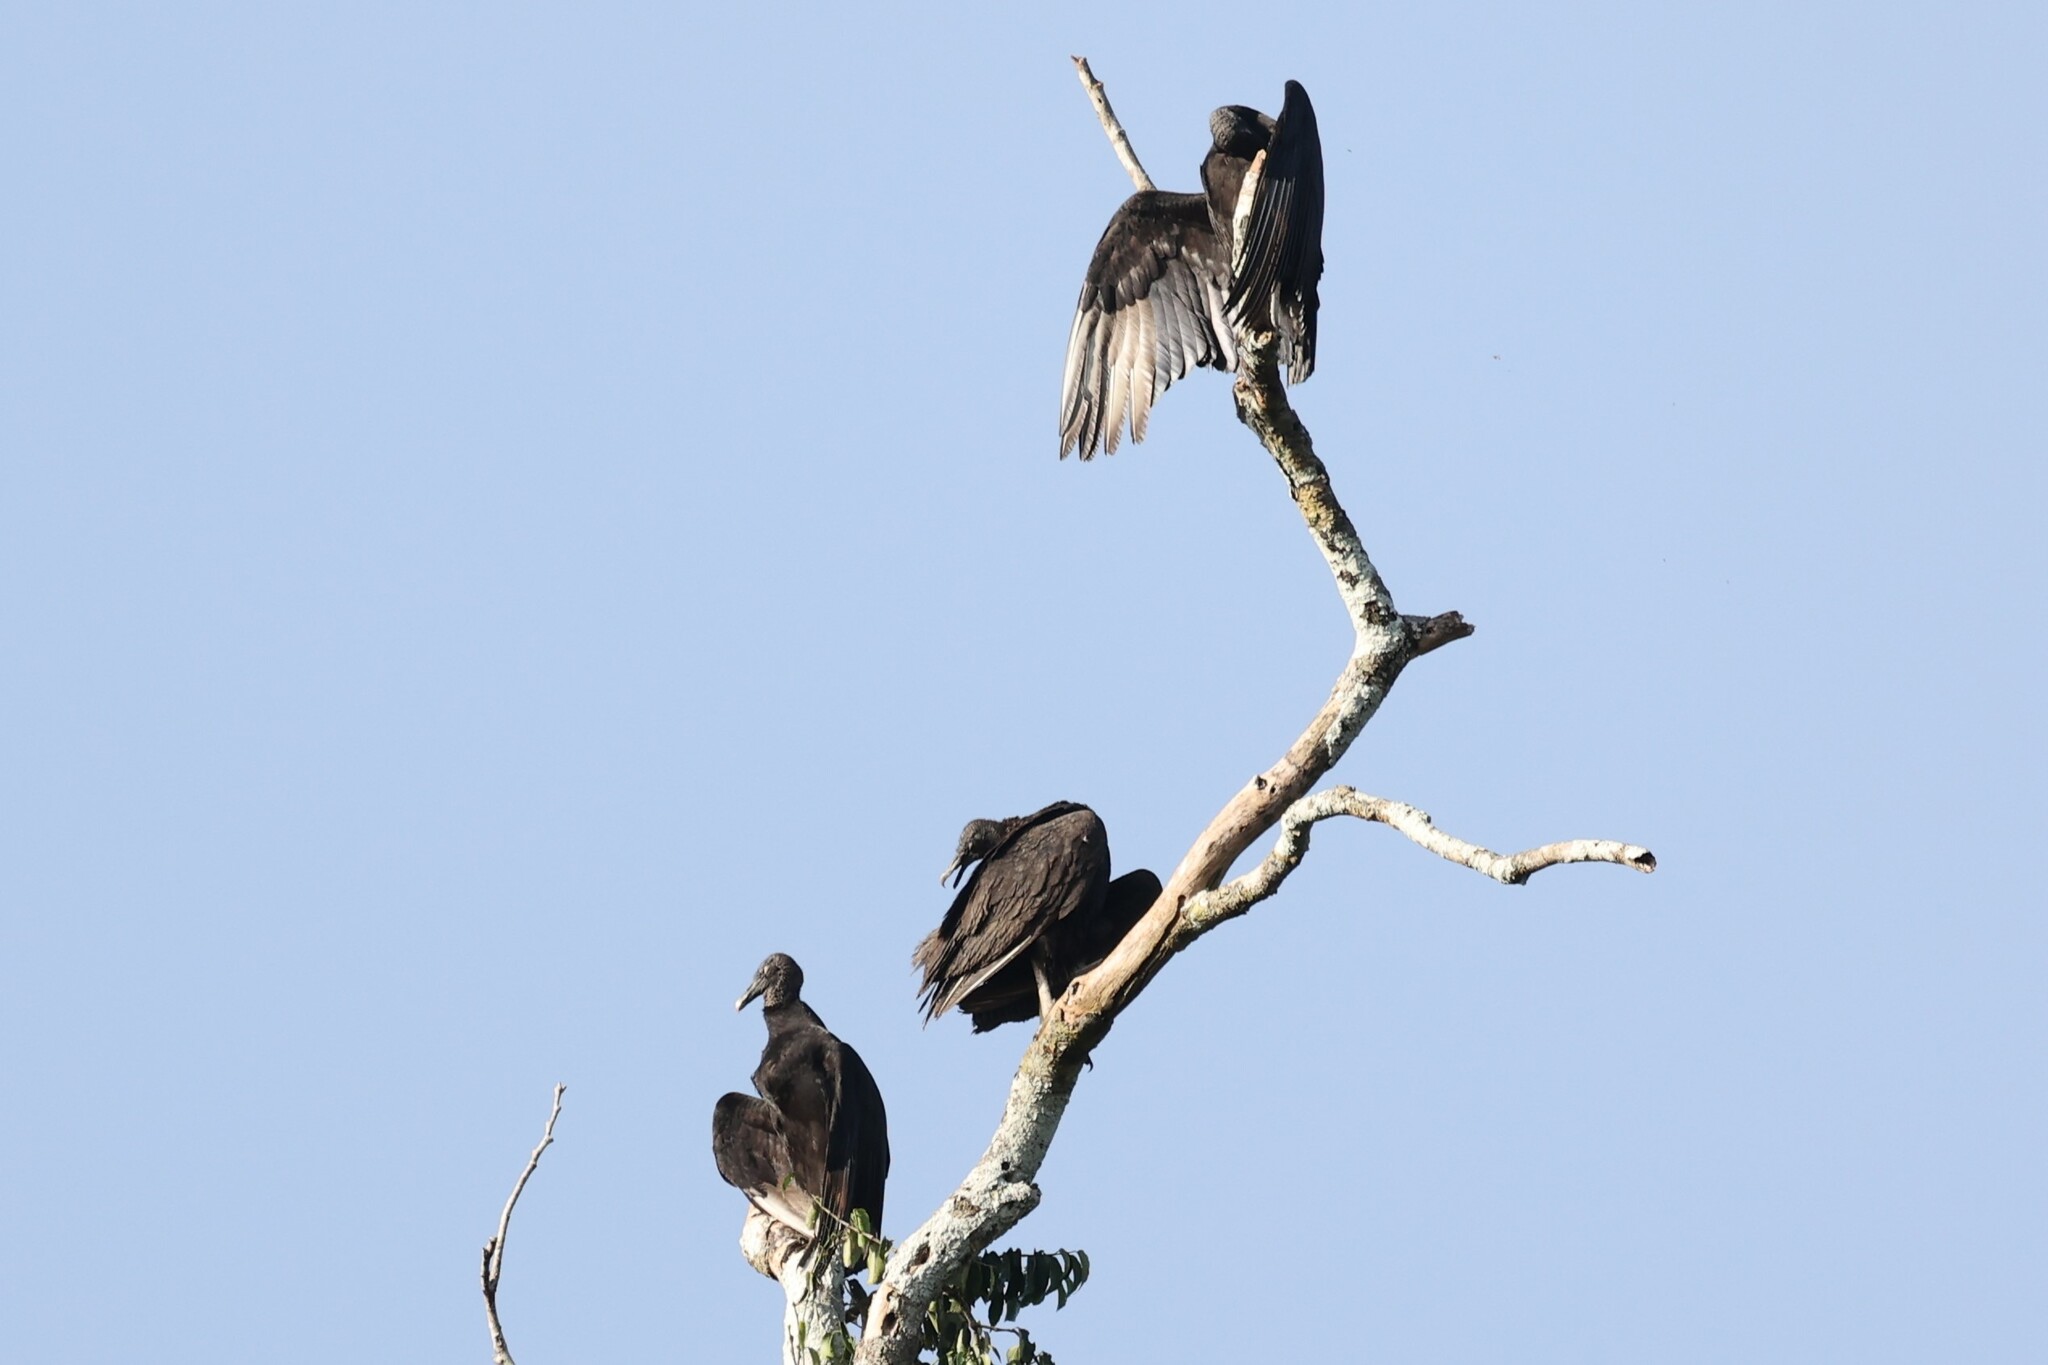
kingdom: Animalia
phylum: Chordata
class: Aves
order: Accipitriformes
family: Cathartidae
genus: Coragyps
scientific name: Coragyps atratus
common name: Black vulture
